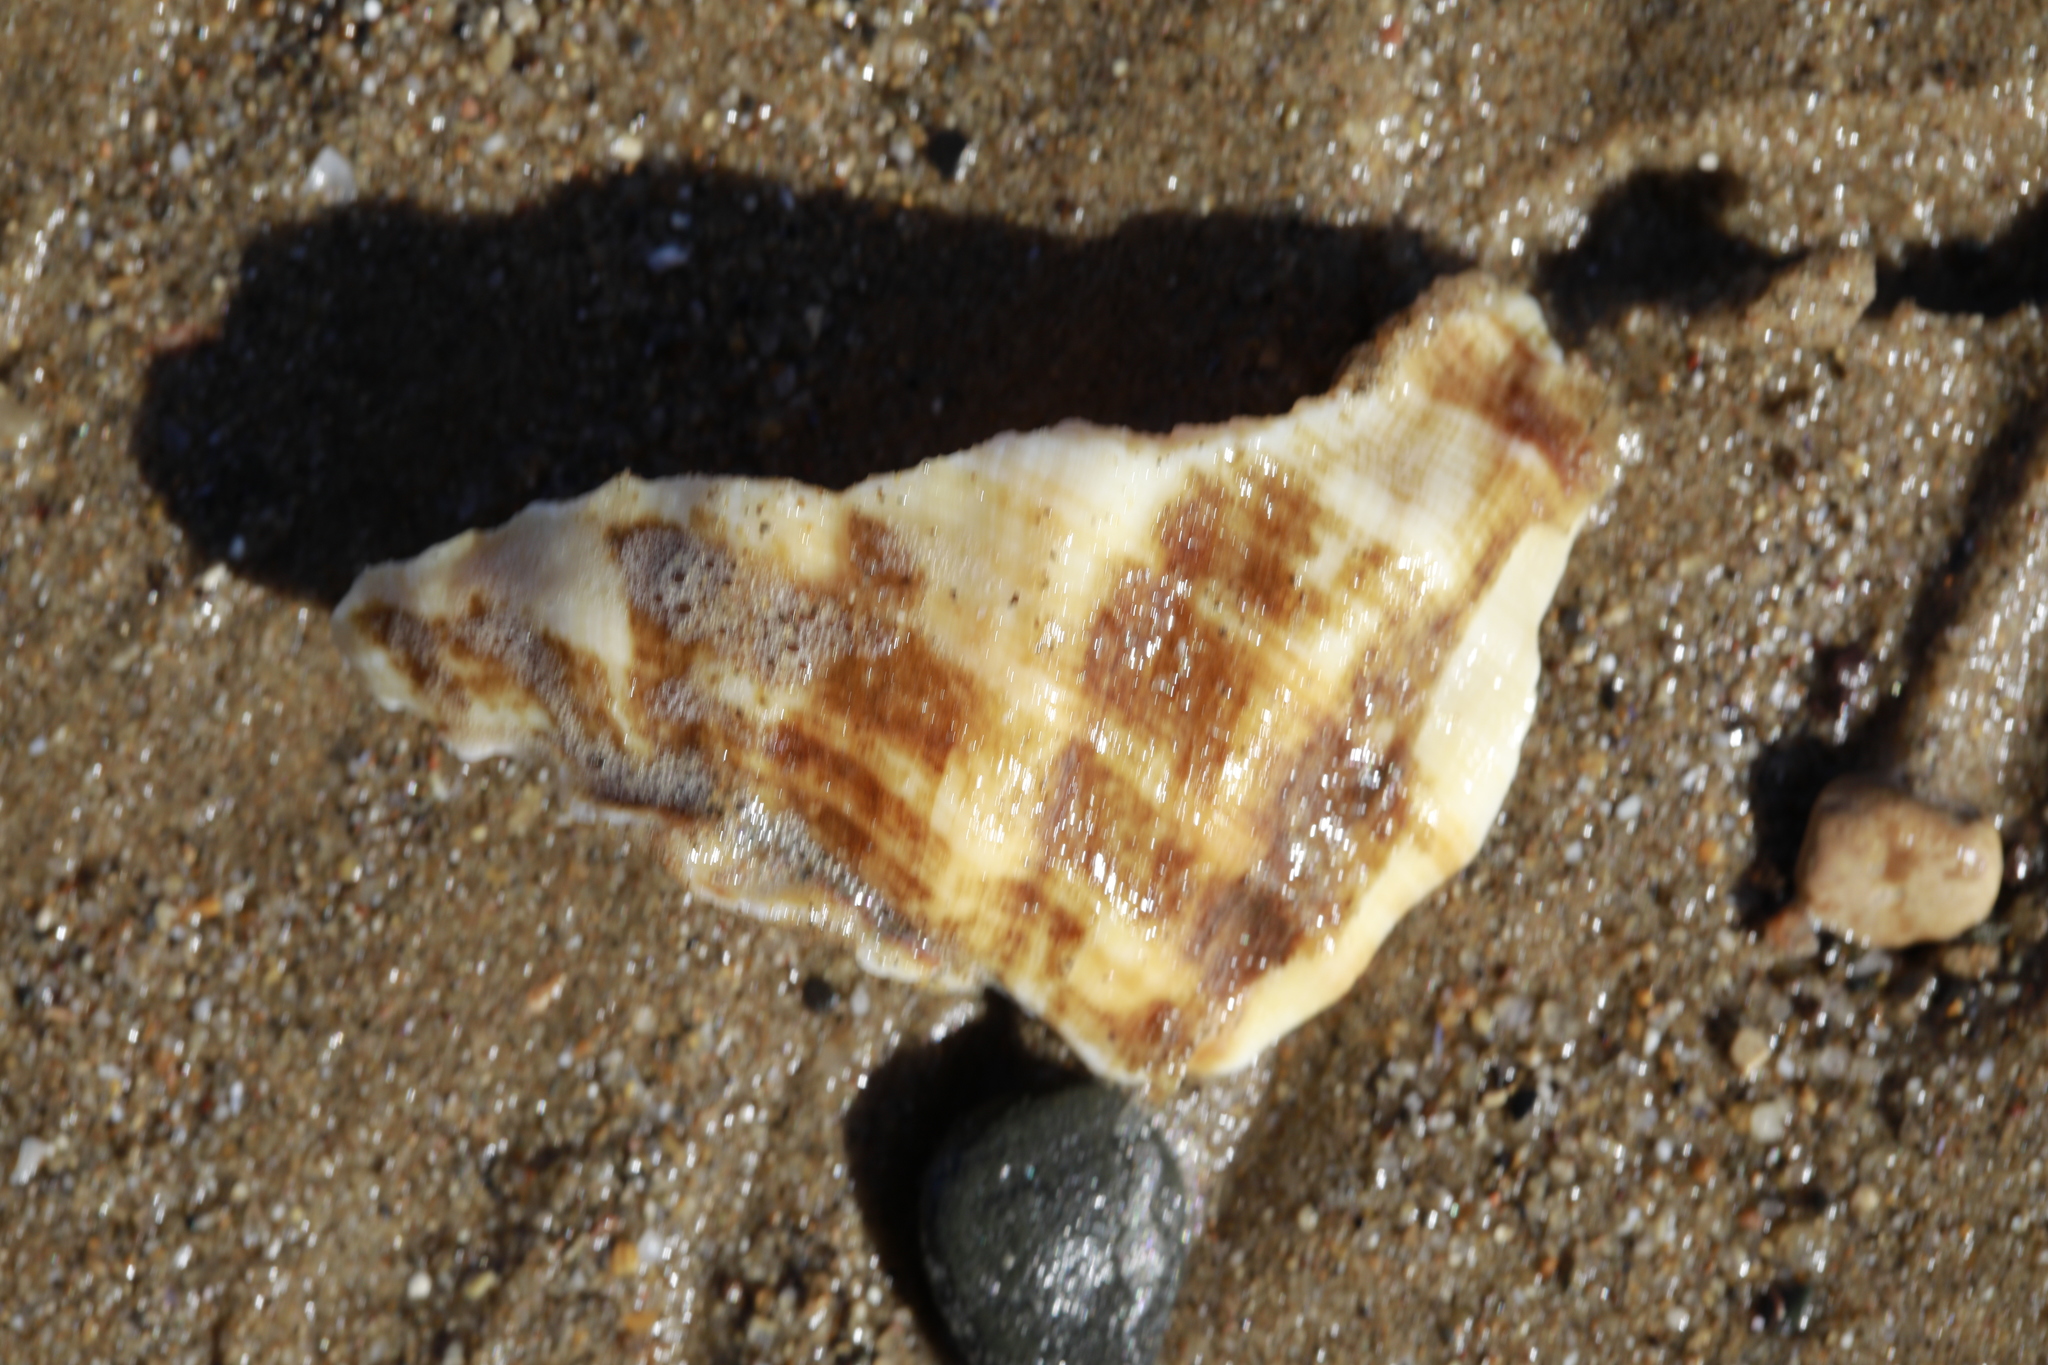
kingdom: Animalia
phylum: Mollusca
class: Gastropoda
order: Neogastropoda
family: Buccinidae
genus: Buccinum
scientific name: Buccinum undatum
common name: Common whelk
